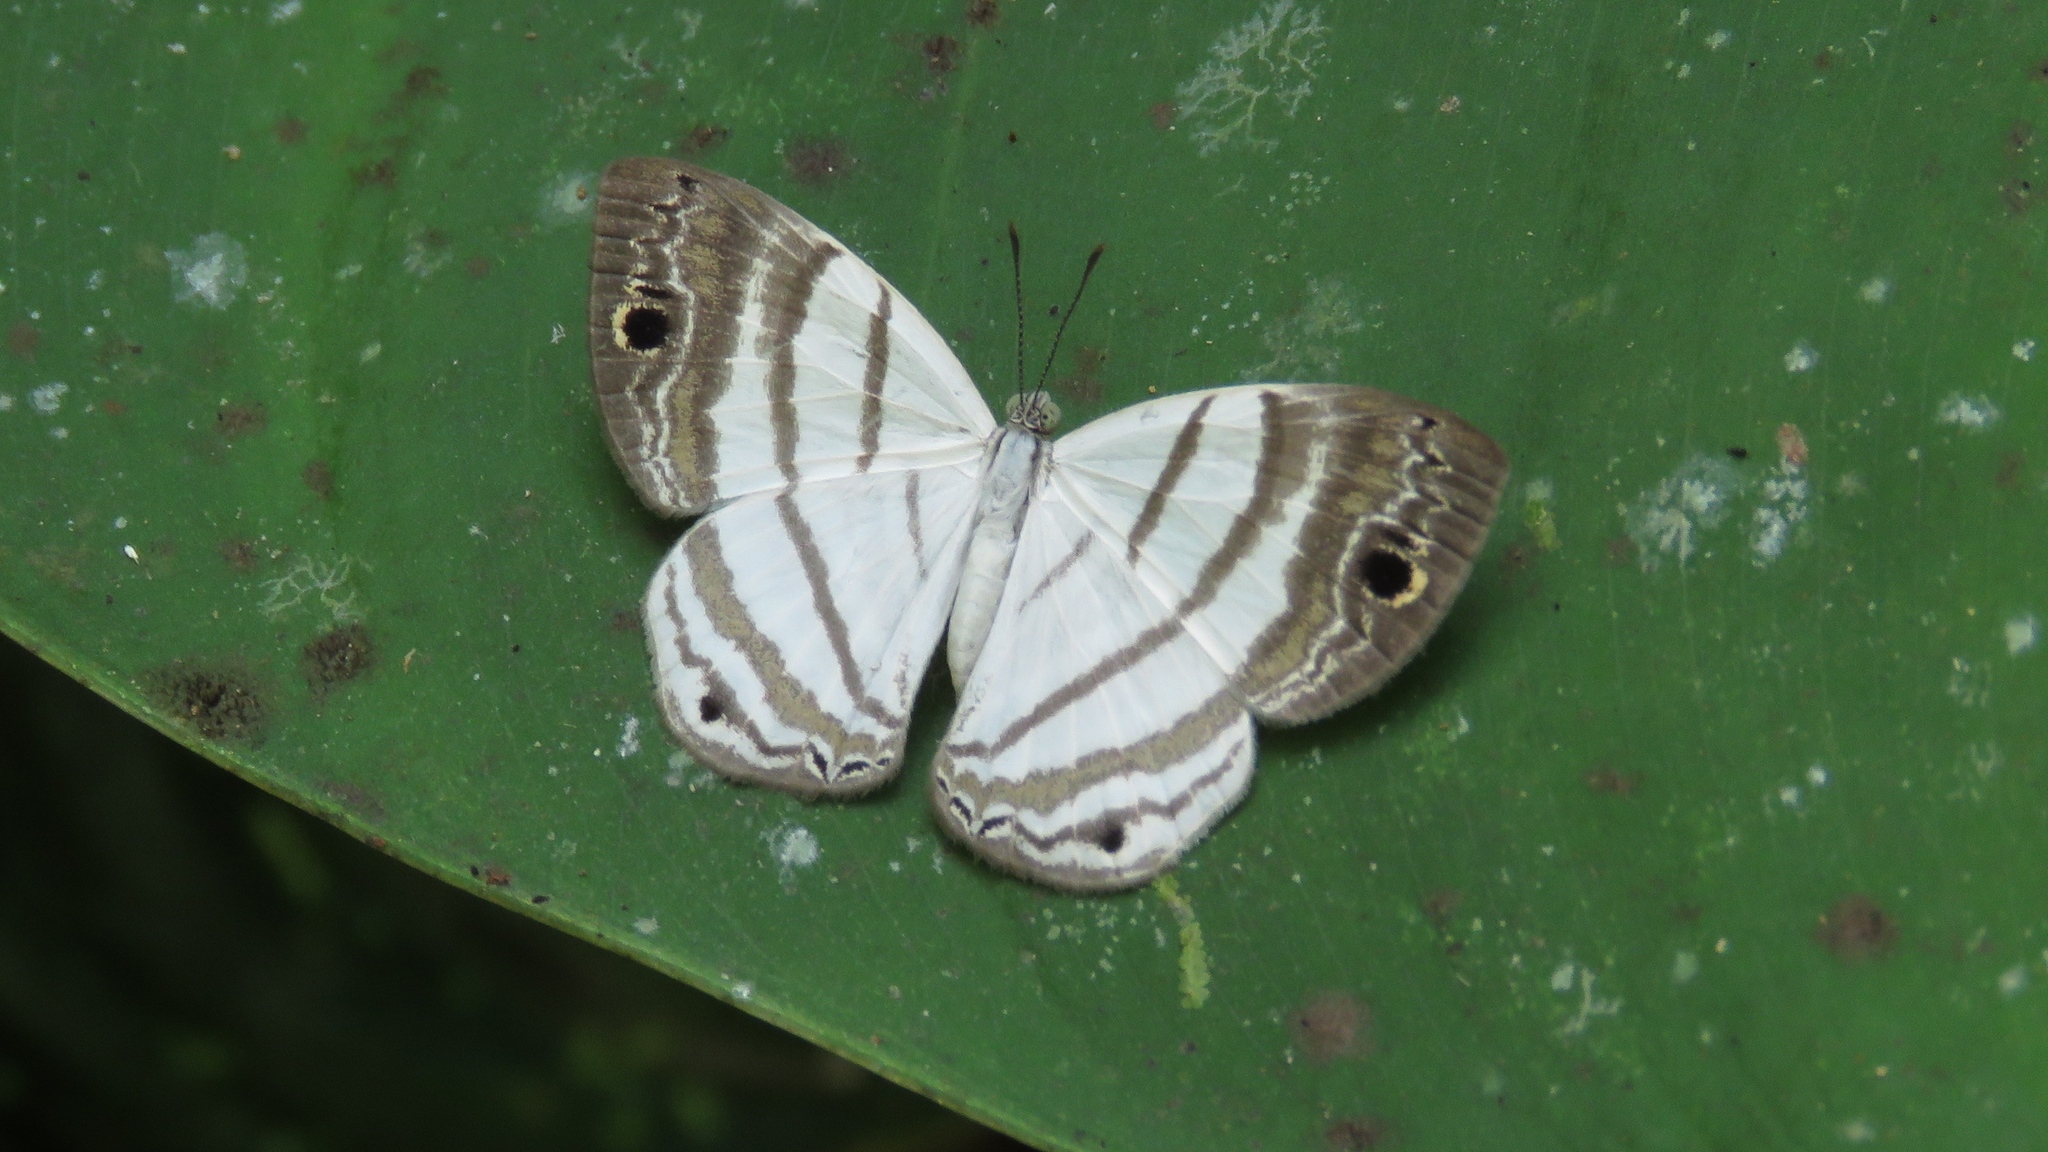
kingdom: Animalia
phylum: Arthropoda
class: Insecta
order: Lepidoptera
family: Riodinidae
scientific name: Riodinidae
